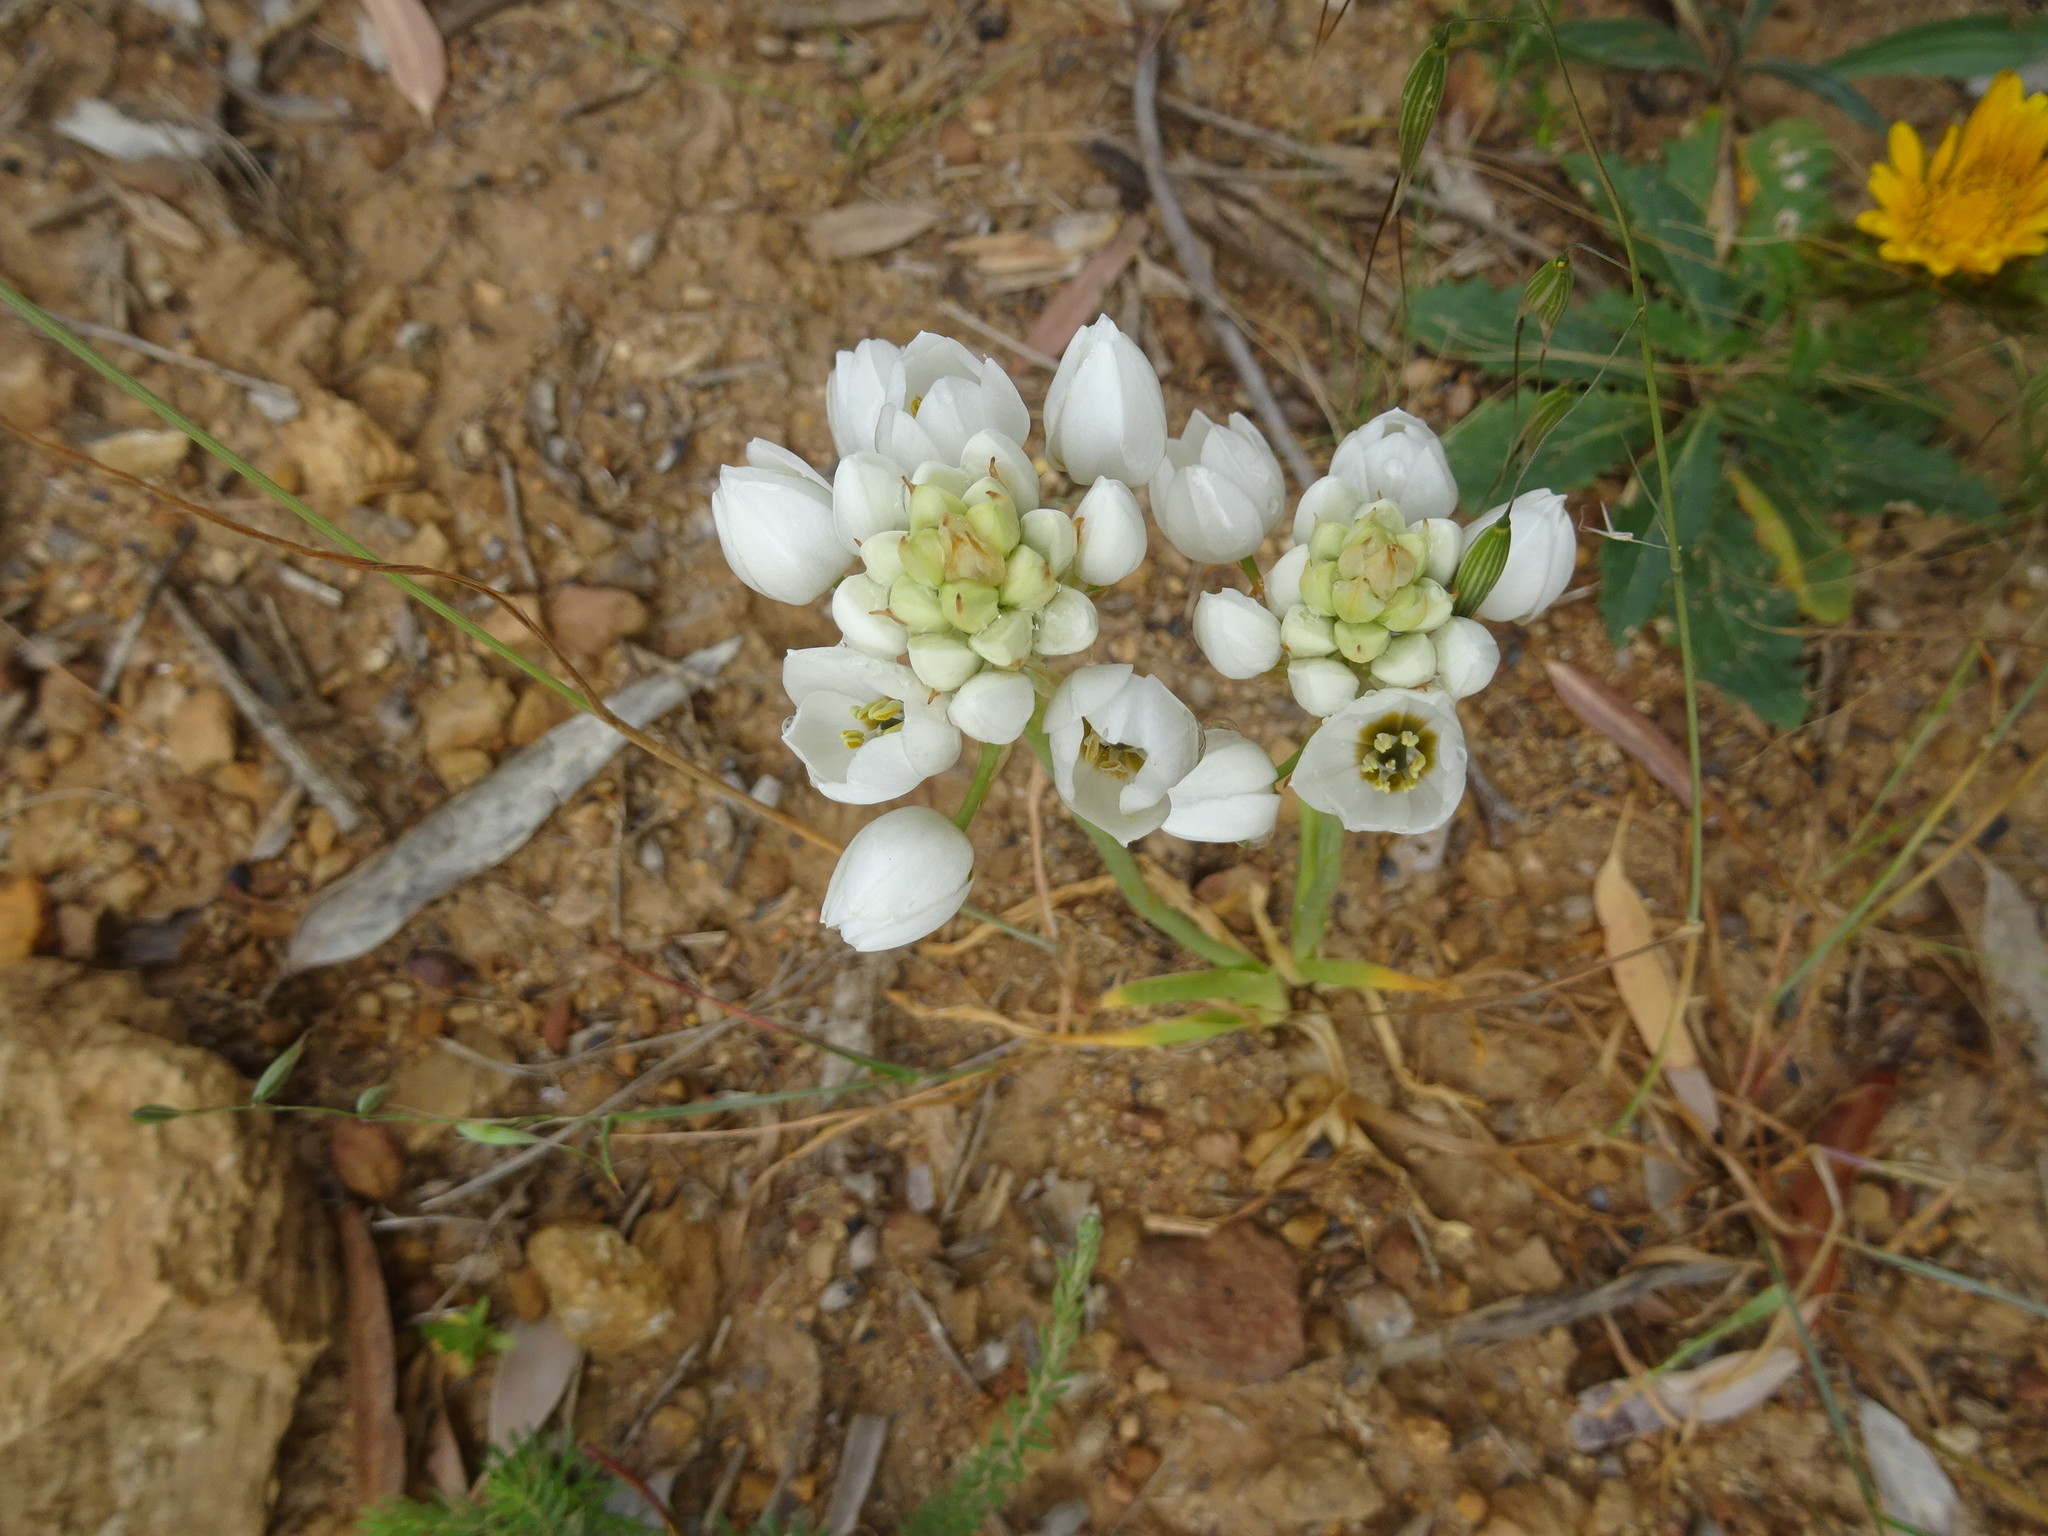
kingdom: Plantae
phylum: Tracheophyta
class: Liliopsida
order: Asparagales
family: Asparagaceae
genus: Ornithogalum
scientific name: Ornithogalum thyrsoides
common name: Chincherinchee
